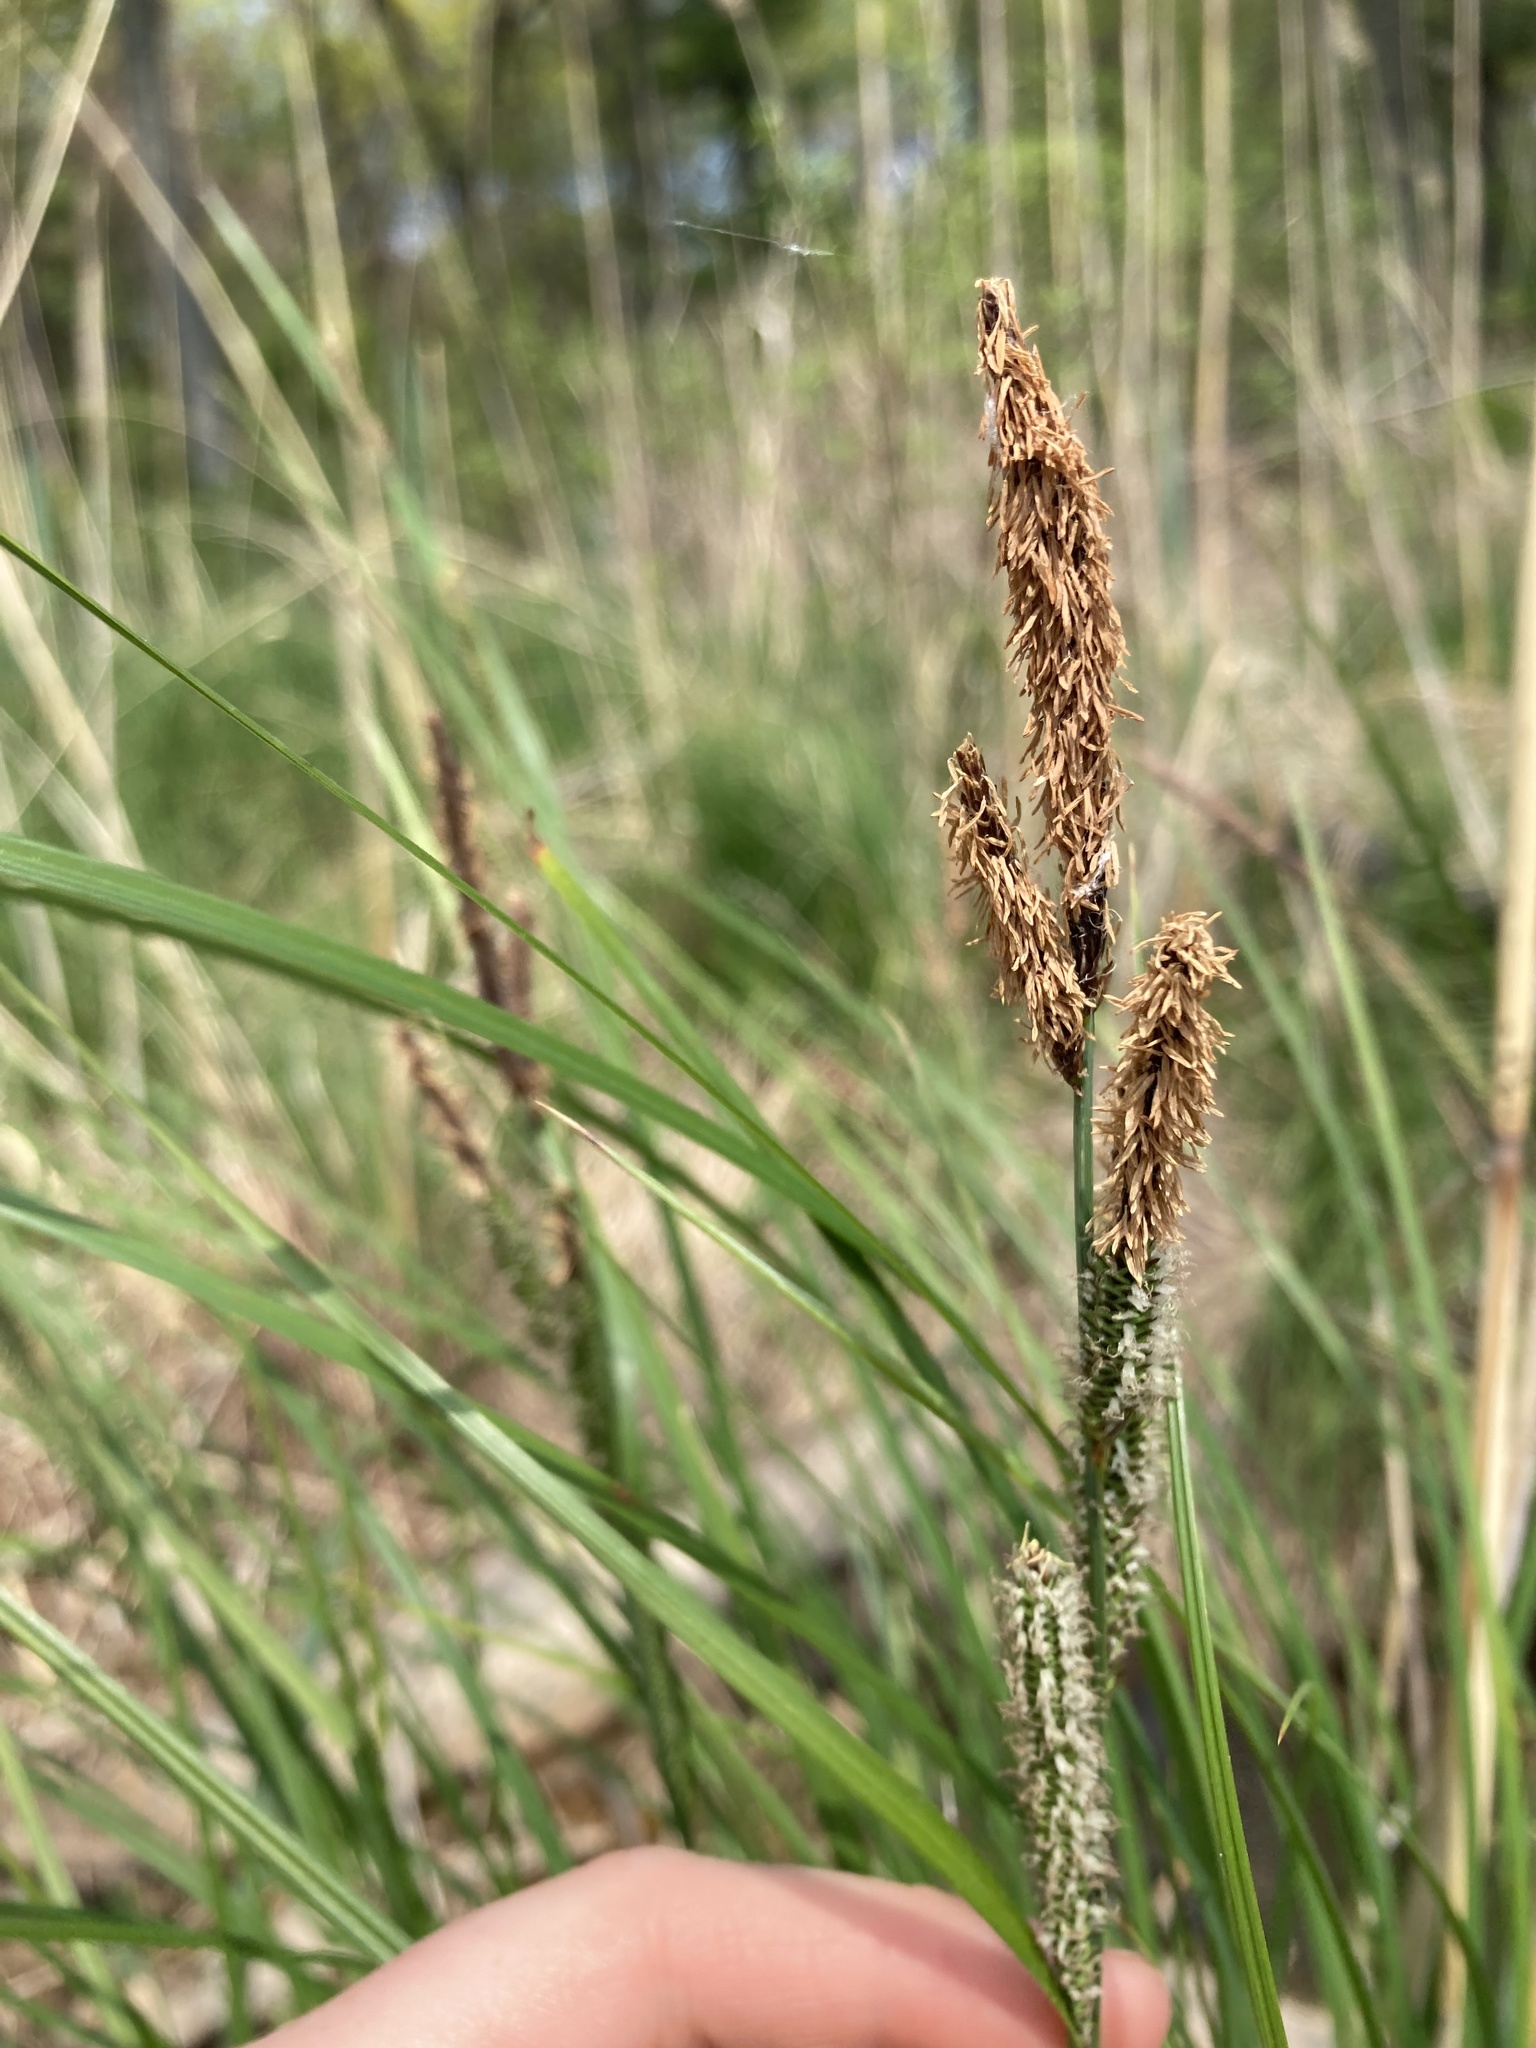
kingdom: Plantae
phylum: Tracheophyta
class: Liliopsida
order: Poales
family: Cyperaceae
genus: Carex
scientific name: Carex stricta
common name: Hummock sedge
